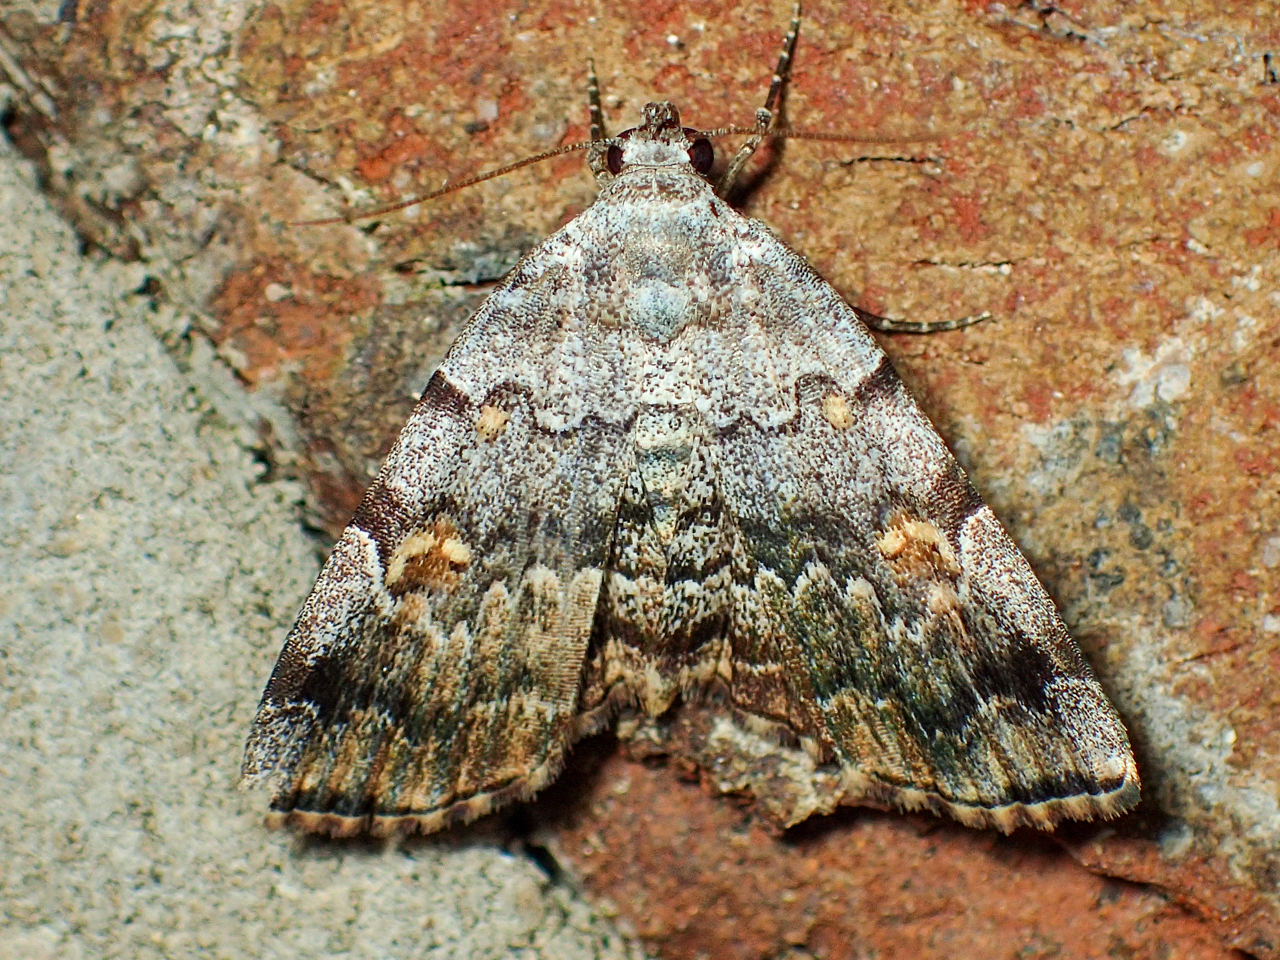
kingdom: Animalia
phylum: Arthropoda
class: Insecta
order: Lepidoptera
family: Erebidae
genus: Idia
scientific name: Idia americalis
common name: American idia moth
